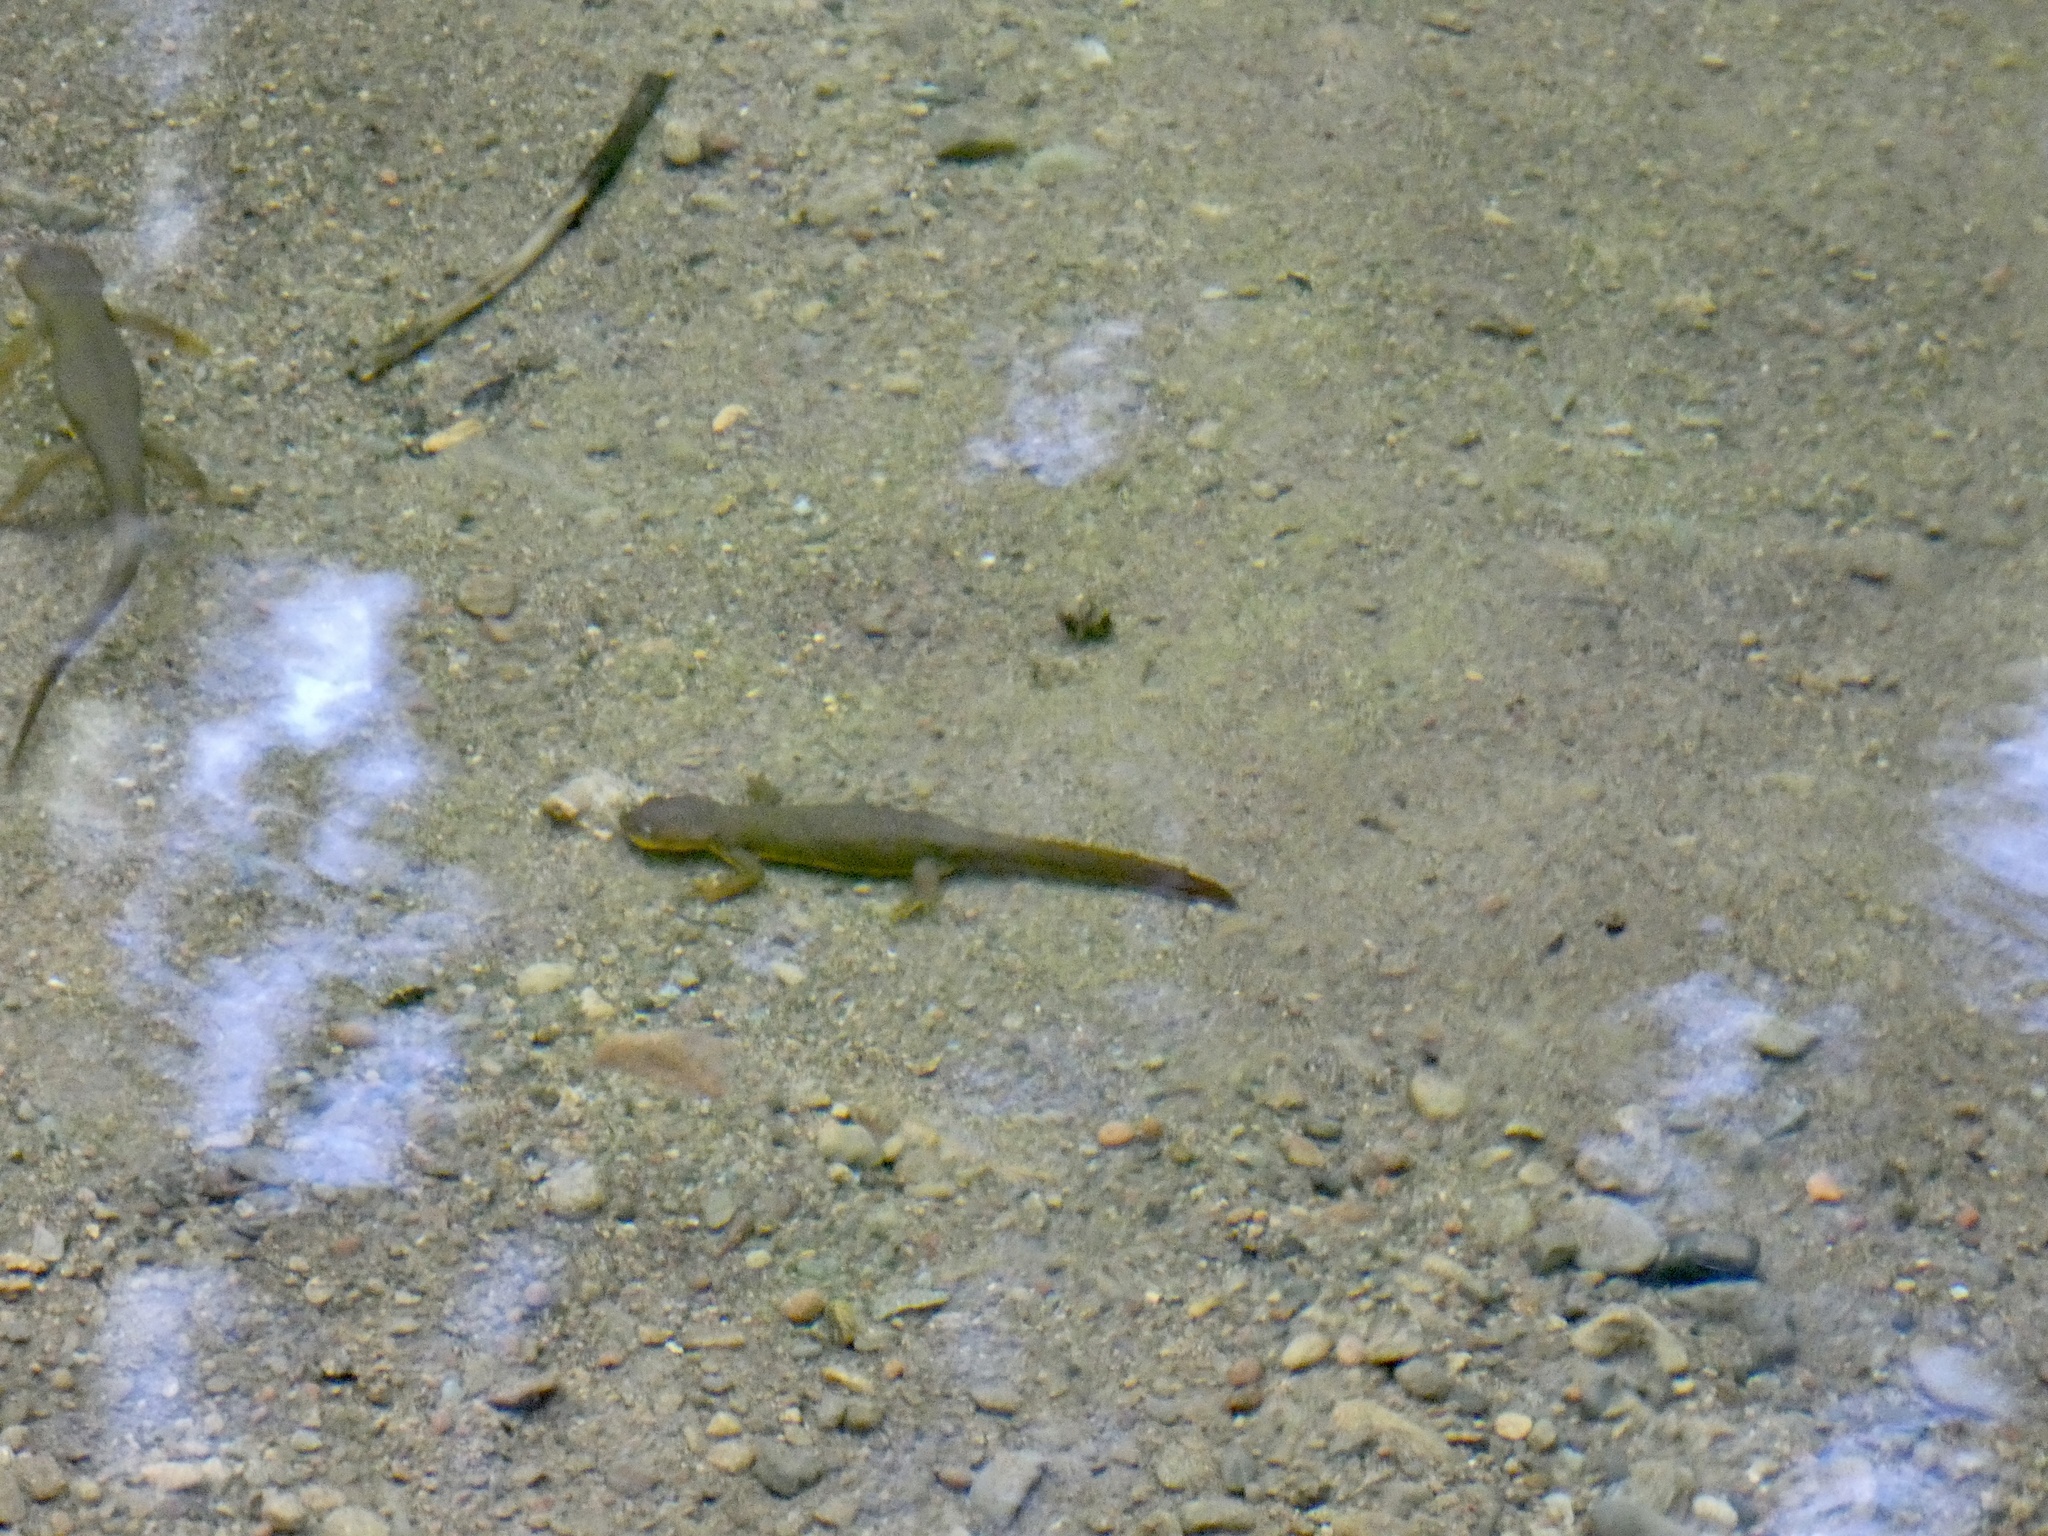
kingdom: Animalia
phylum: Chordata
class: Amphibia
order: Caudata
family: Salamandridae
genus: Taricha
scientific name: Taricha granulosa
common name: Roughskin newt
